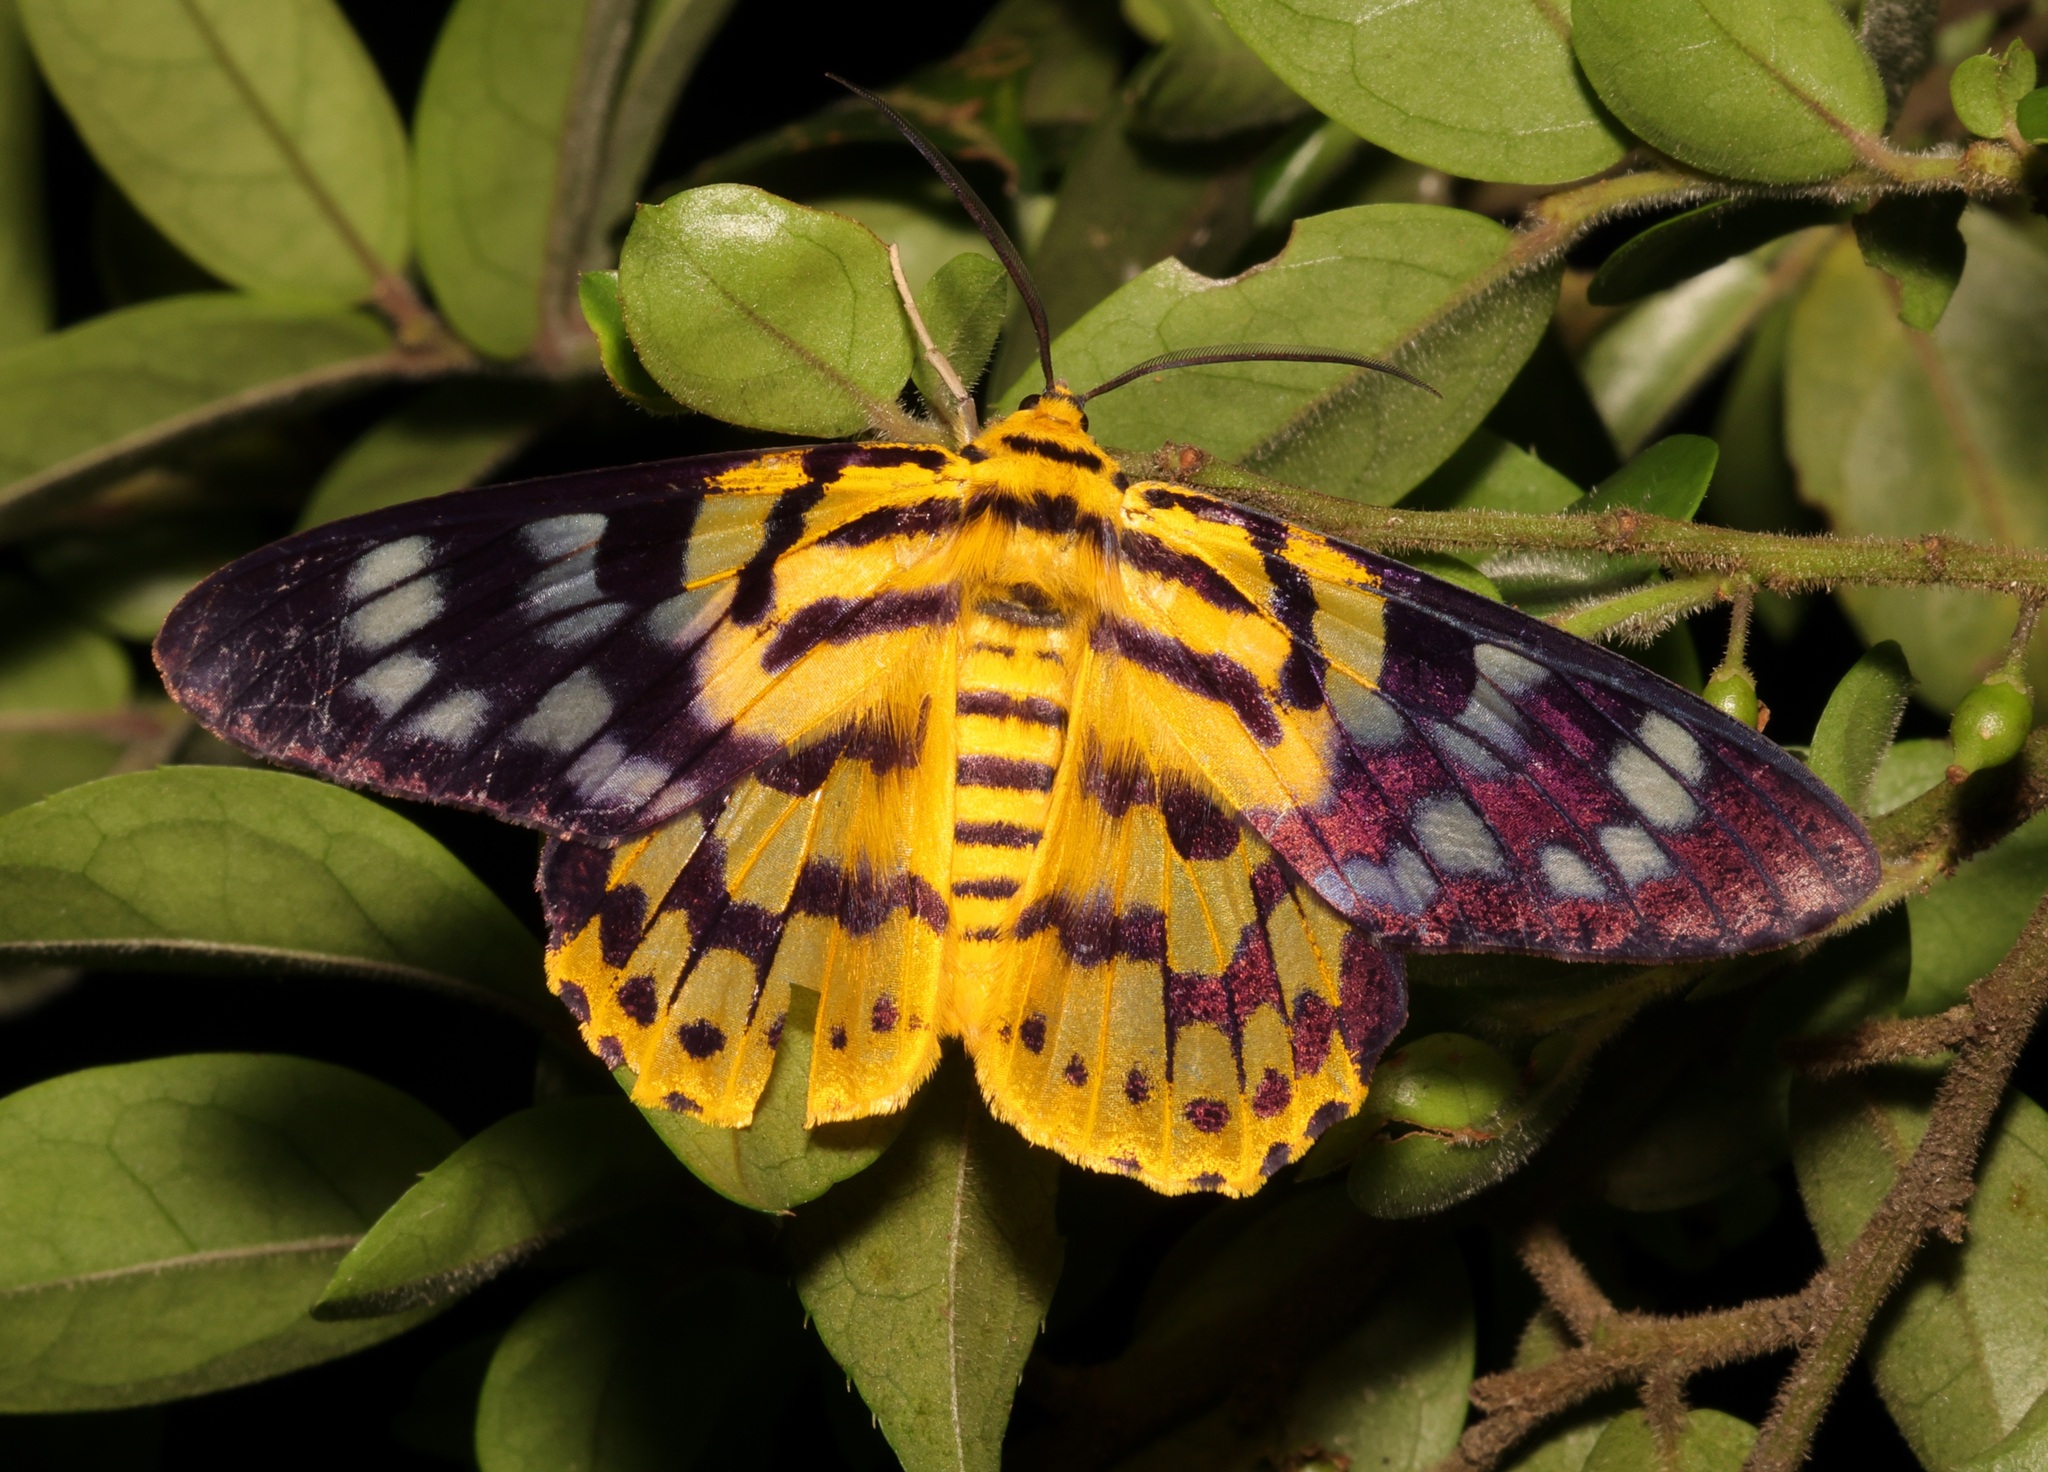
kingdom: Animalia
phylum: Arthropoda
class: Insecta
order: Lepidoptera
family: Geometridae
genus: Dysphania
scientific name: Dysphania militaris
